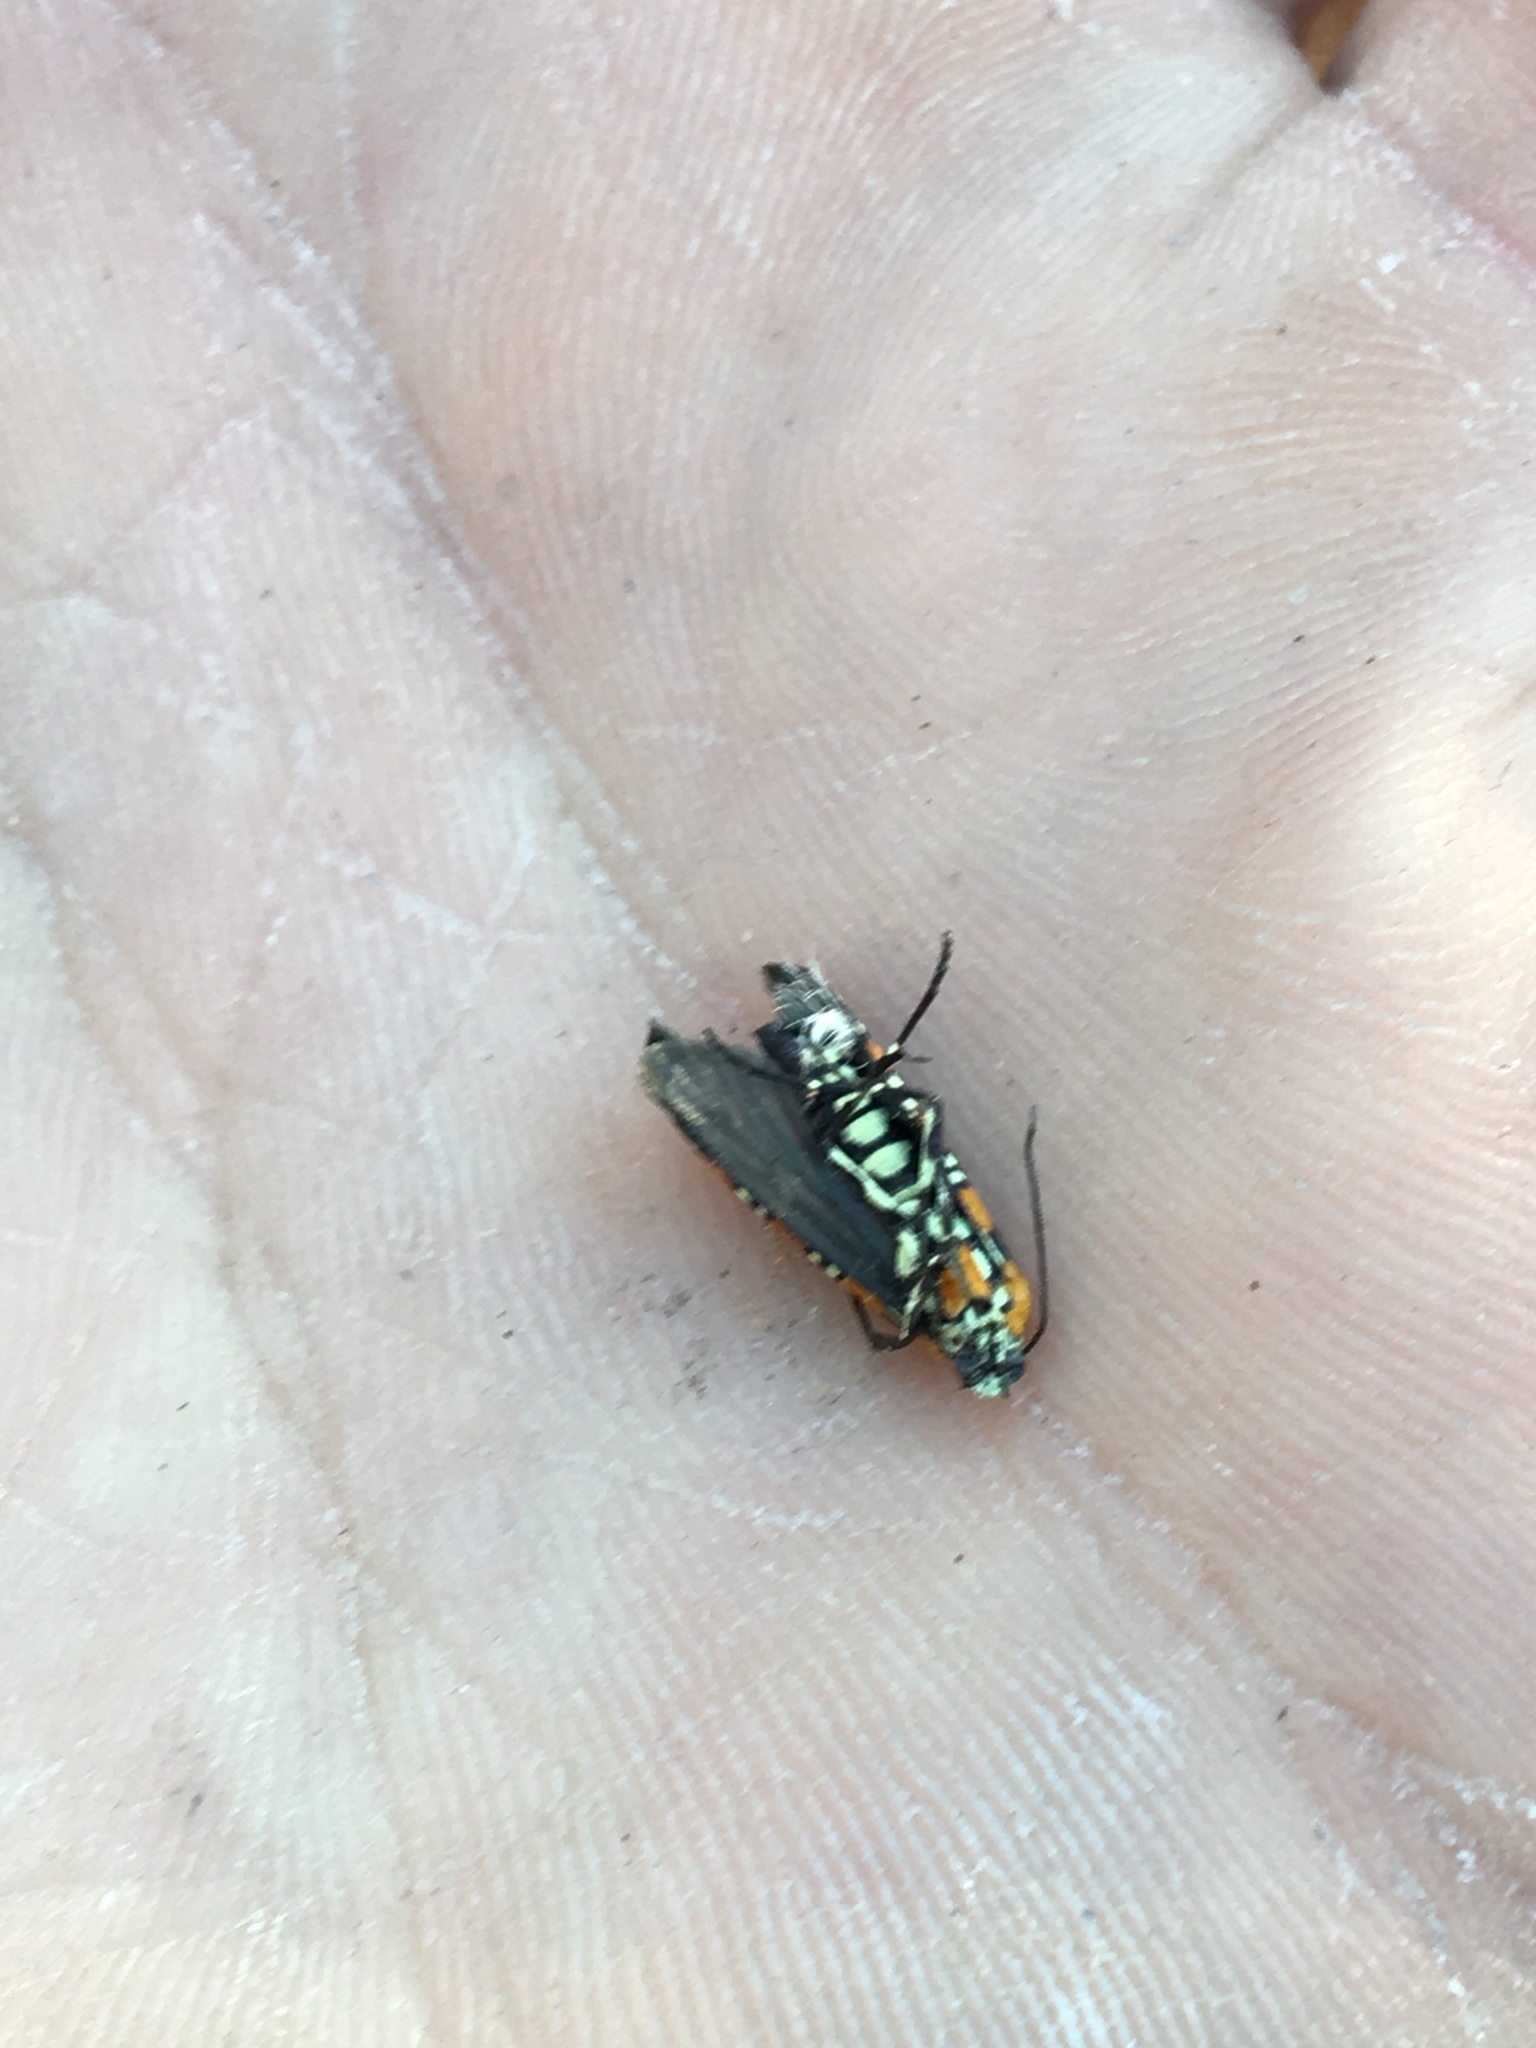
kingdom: Animalia
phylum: Arthropoda
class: Insecta
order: Lepidoptera
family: Attevidae
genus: Atteva
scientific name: Atteva punctella
